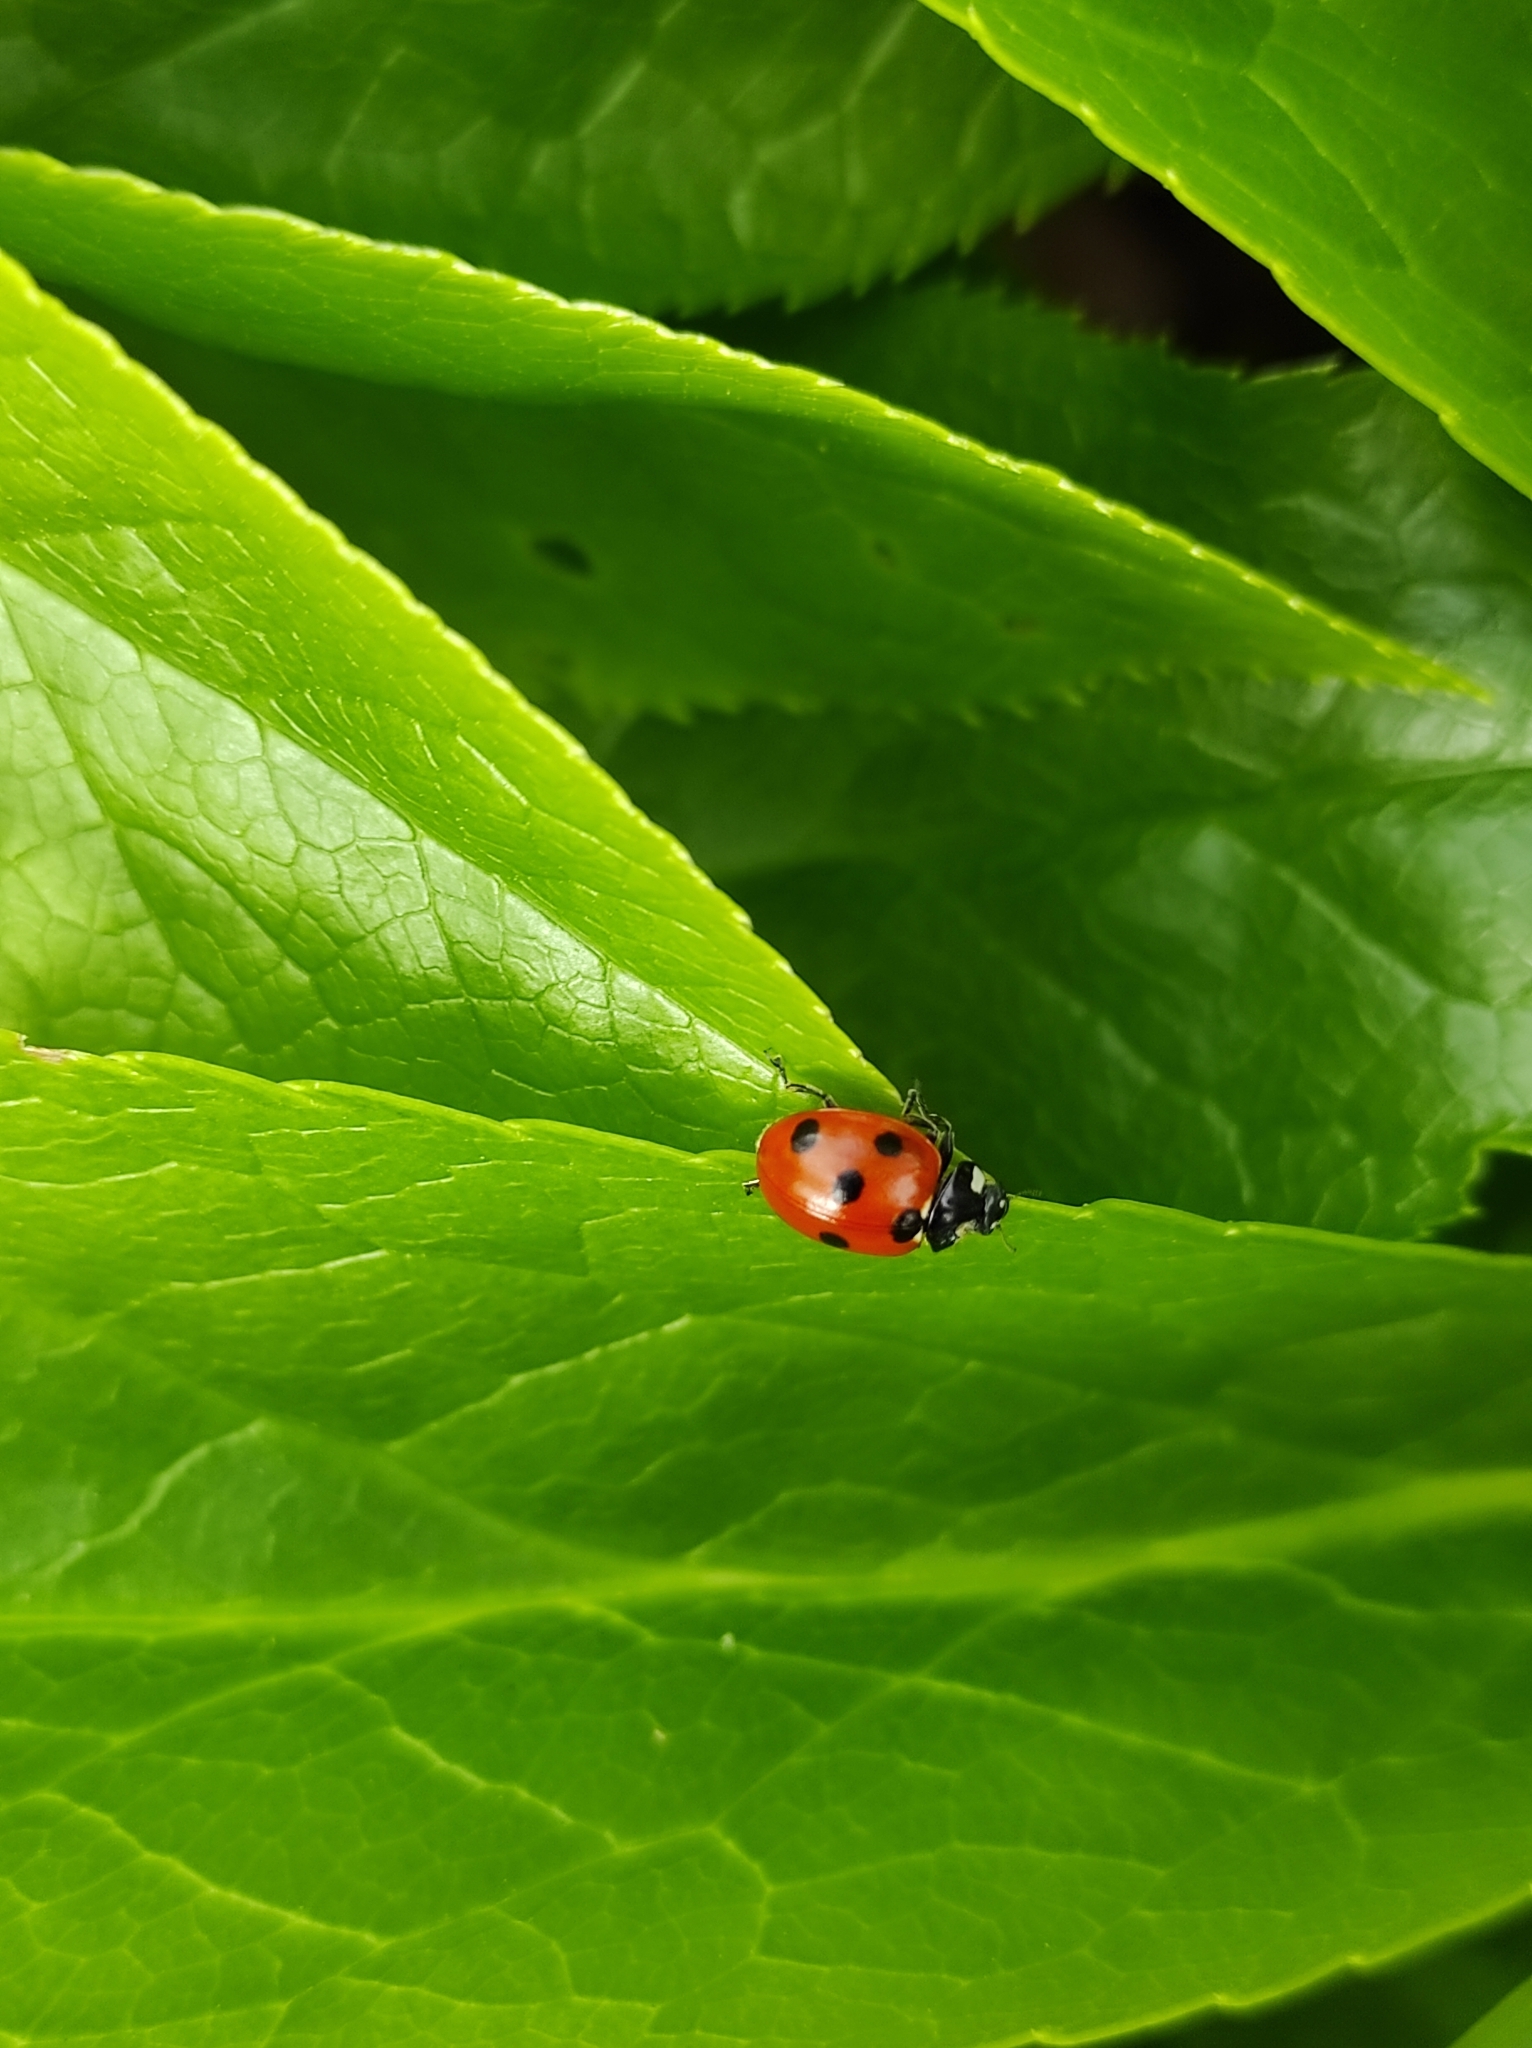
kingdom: Animalia
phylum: Arthropoda
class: Insecta
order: Coleoptera
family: Coccinellidae
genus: Coccinella
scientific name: Coccinella septempunctata
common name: Sevenspotted lady beetle
